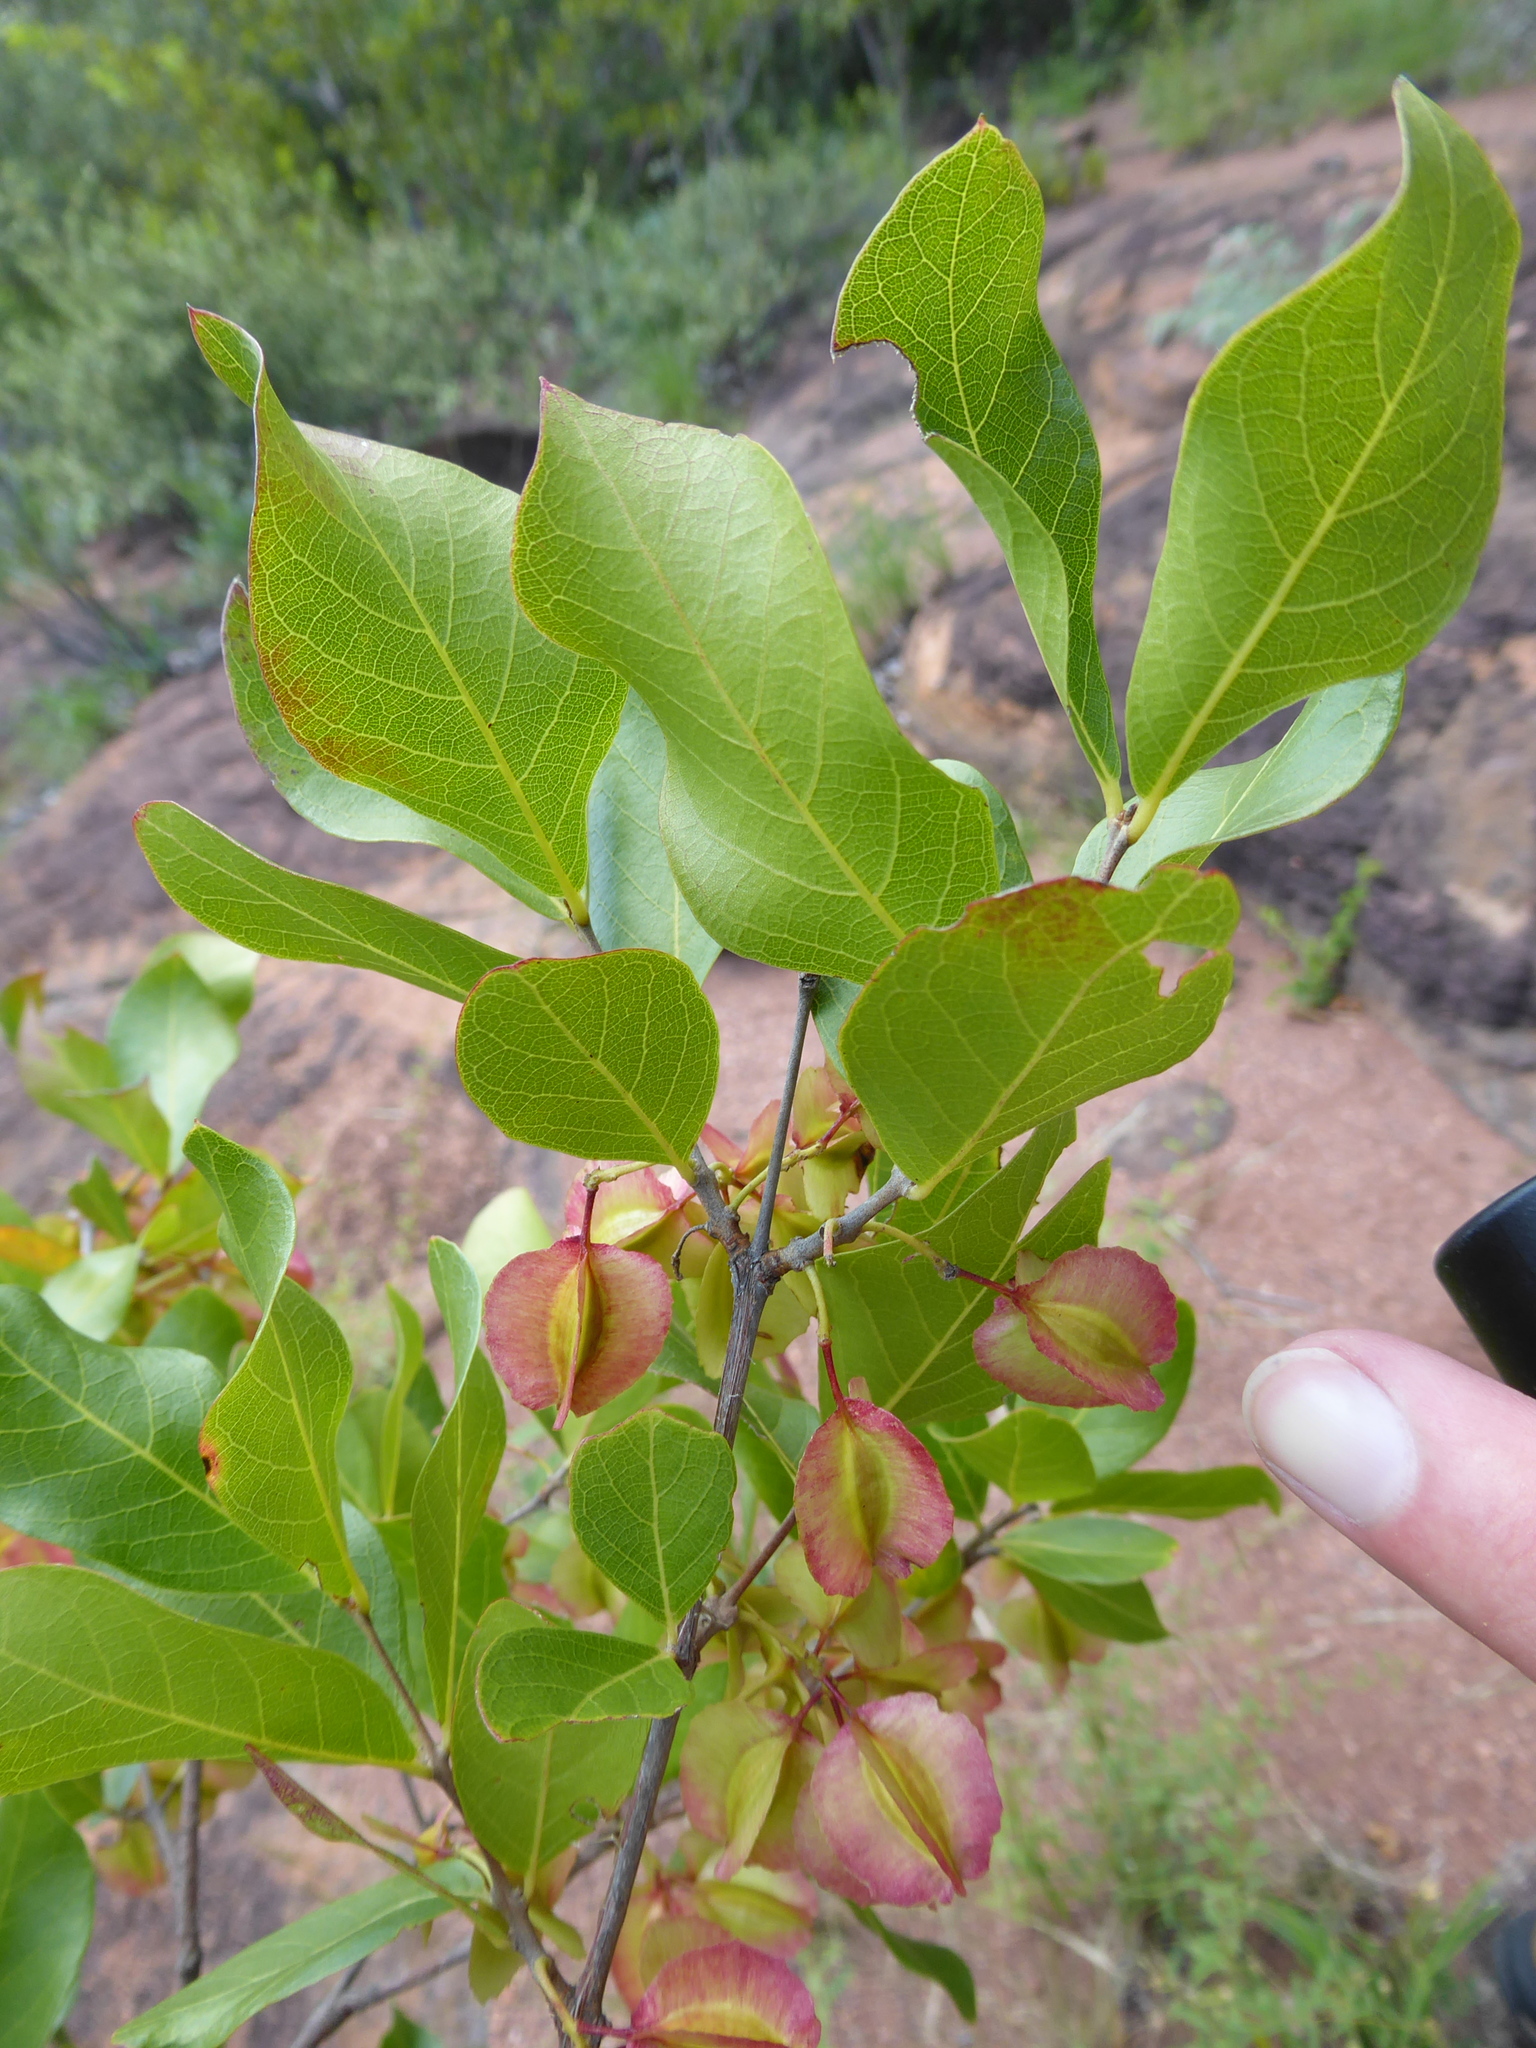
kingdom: Plantae
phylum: Tracheophyta
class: Magnoliopsida
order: Myrtales
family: Combretaceae
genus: Combretum
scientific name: Combretum apiculatum
